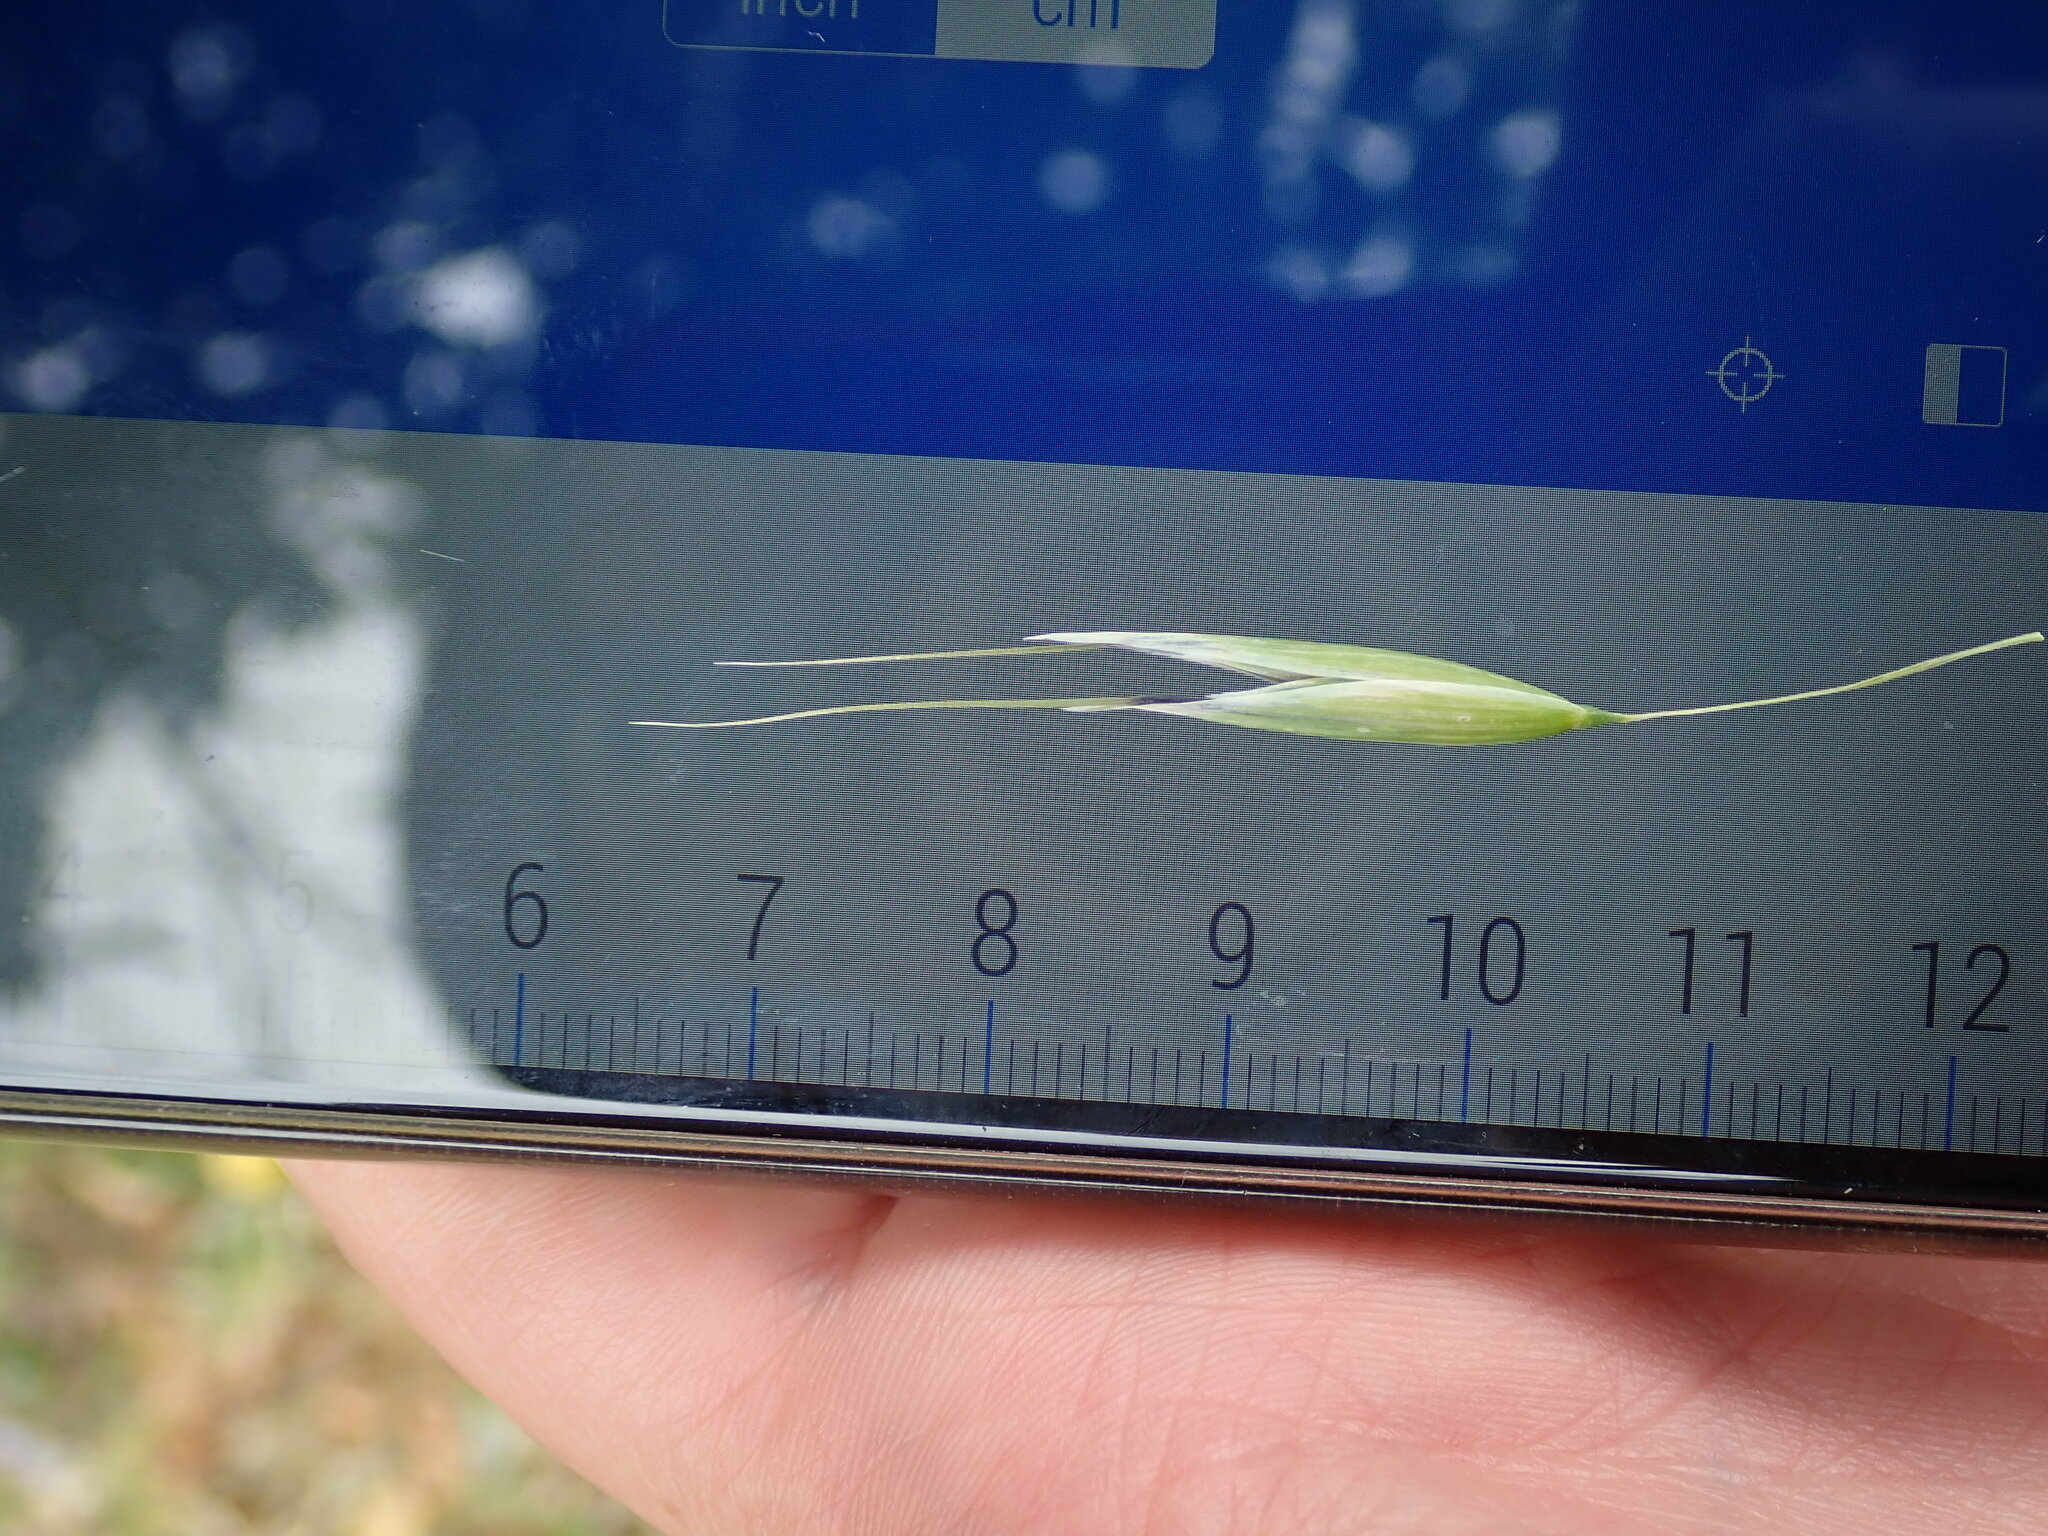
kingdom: Plantae
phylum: Tracheophyta
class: Liliopsida
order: Poales
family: Poaceae
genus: Avena
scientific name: Avena fatua
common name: Wild oat
